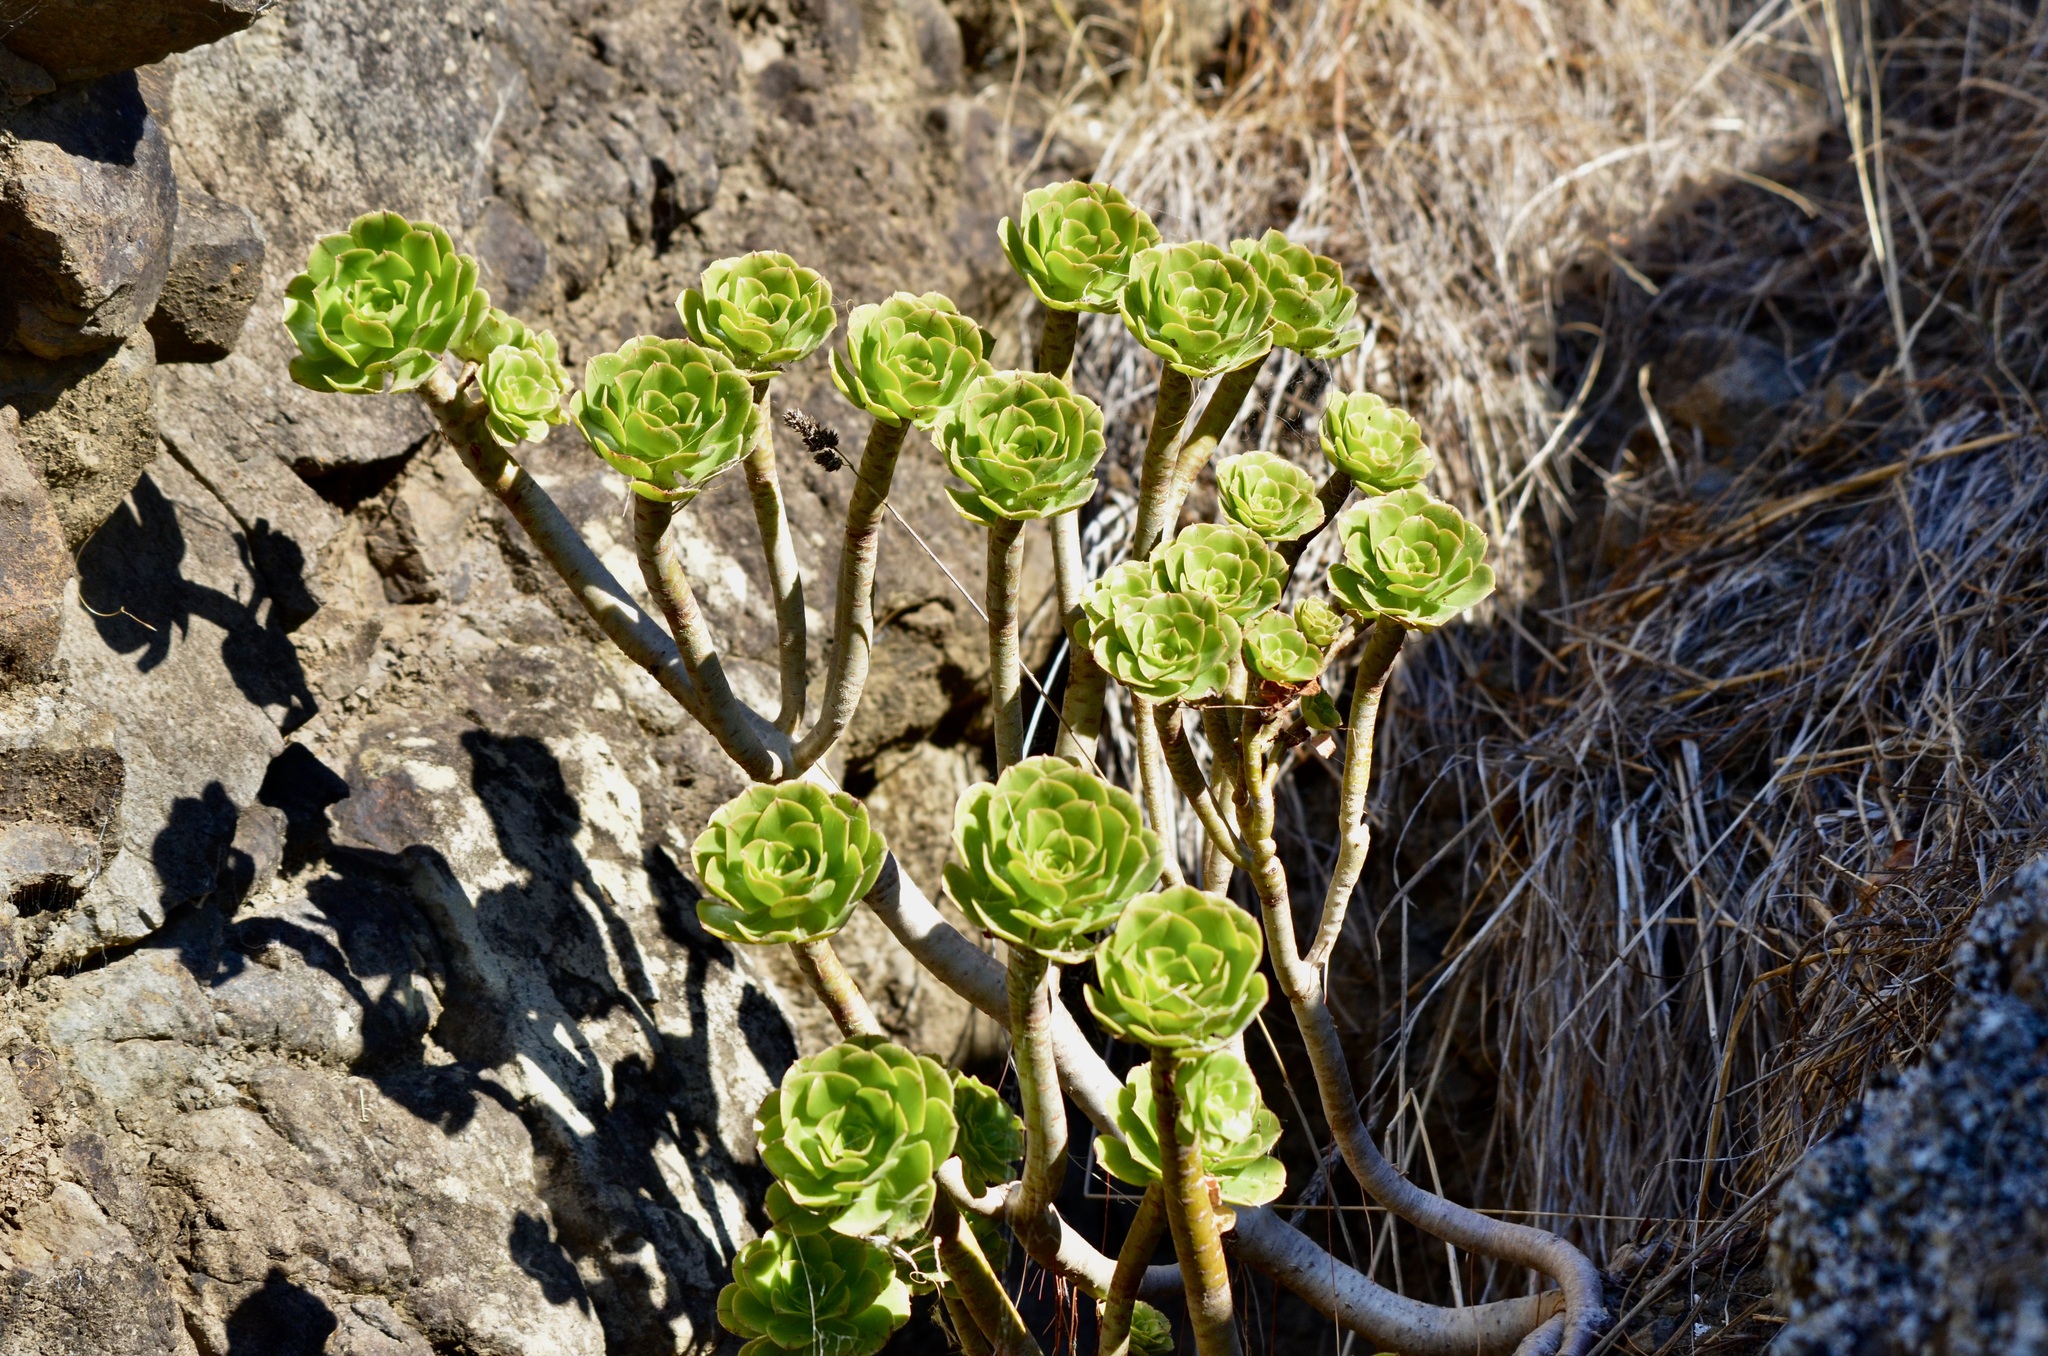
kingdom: Plantae
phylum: Tracheophyta
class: Magnoliopsida
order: Saxifragales
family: Crassulaceae
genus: Aeonium
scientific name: Aeonium arboreum
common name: Tree aeonium
